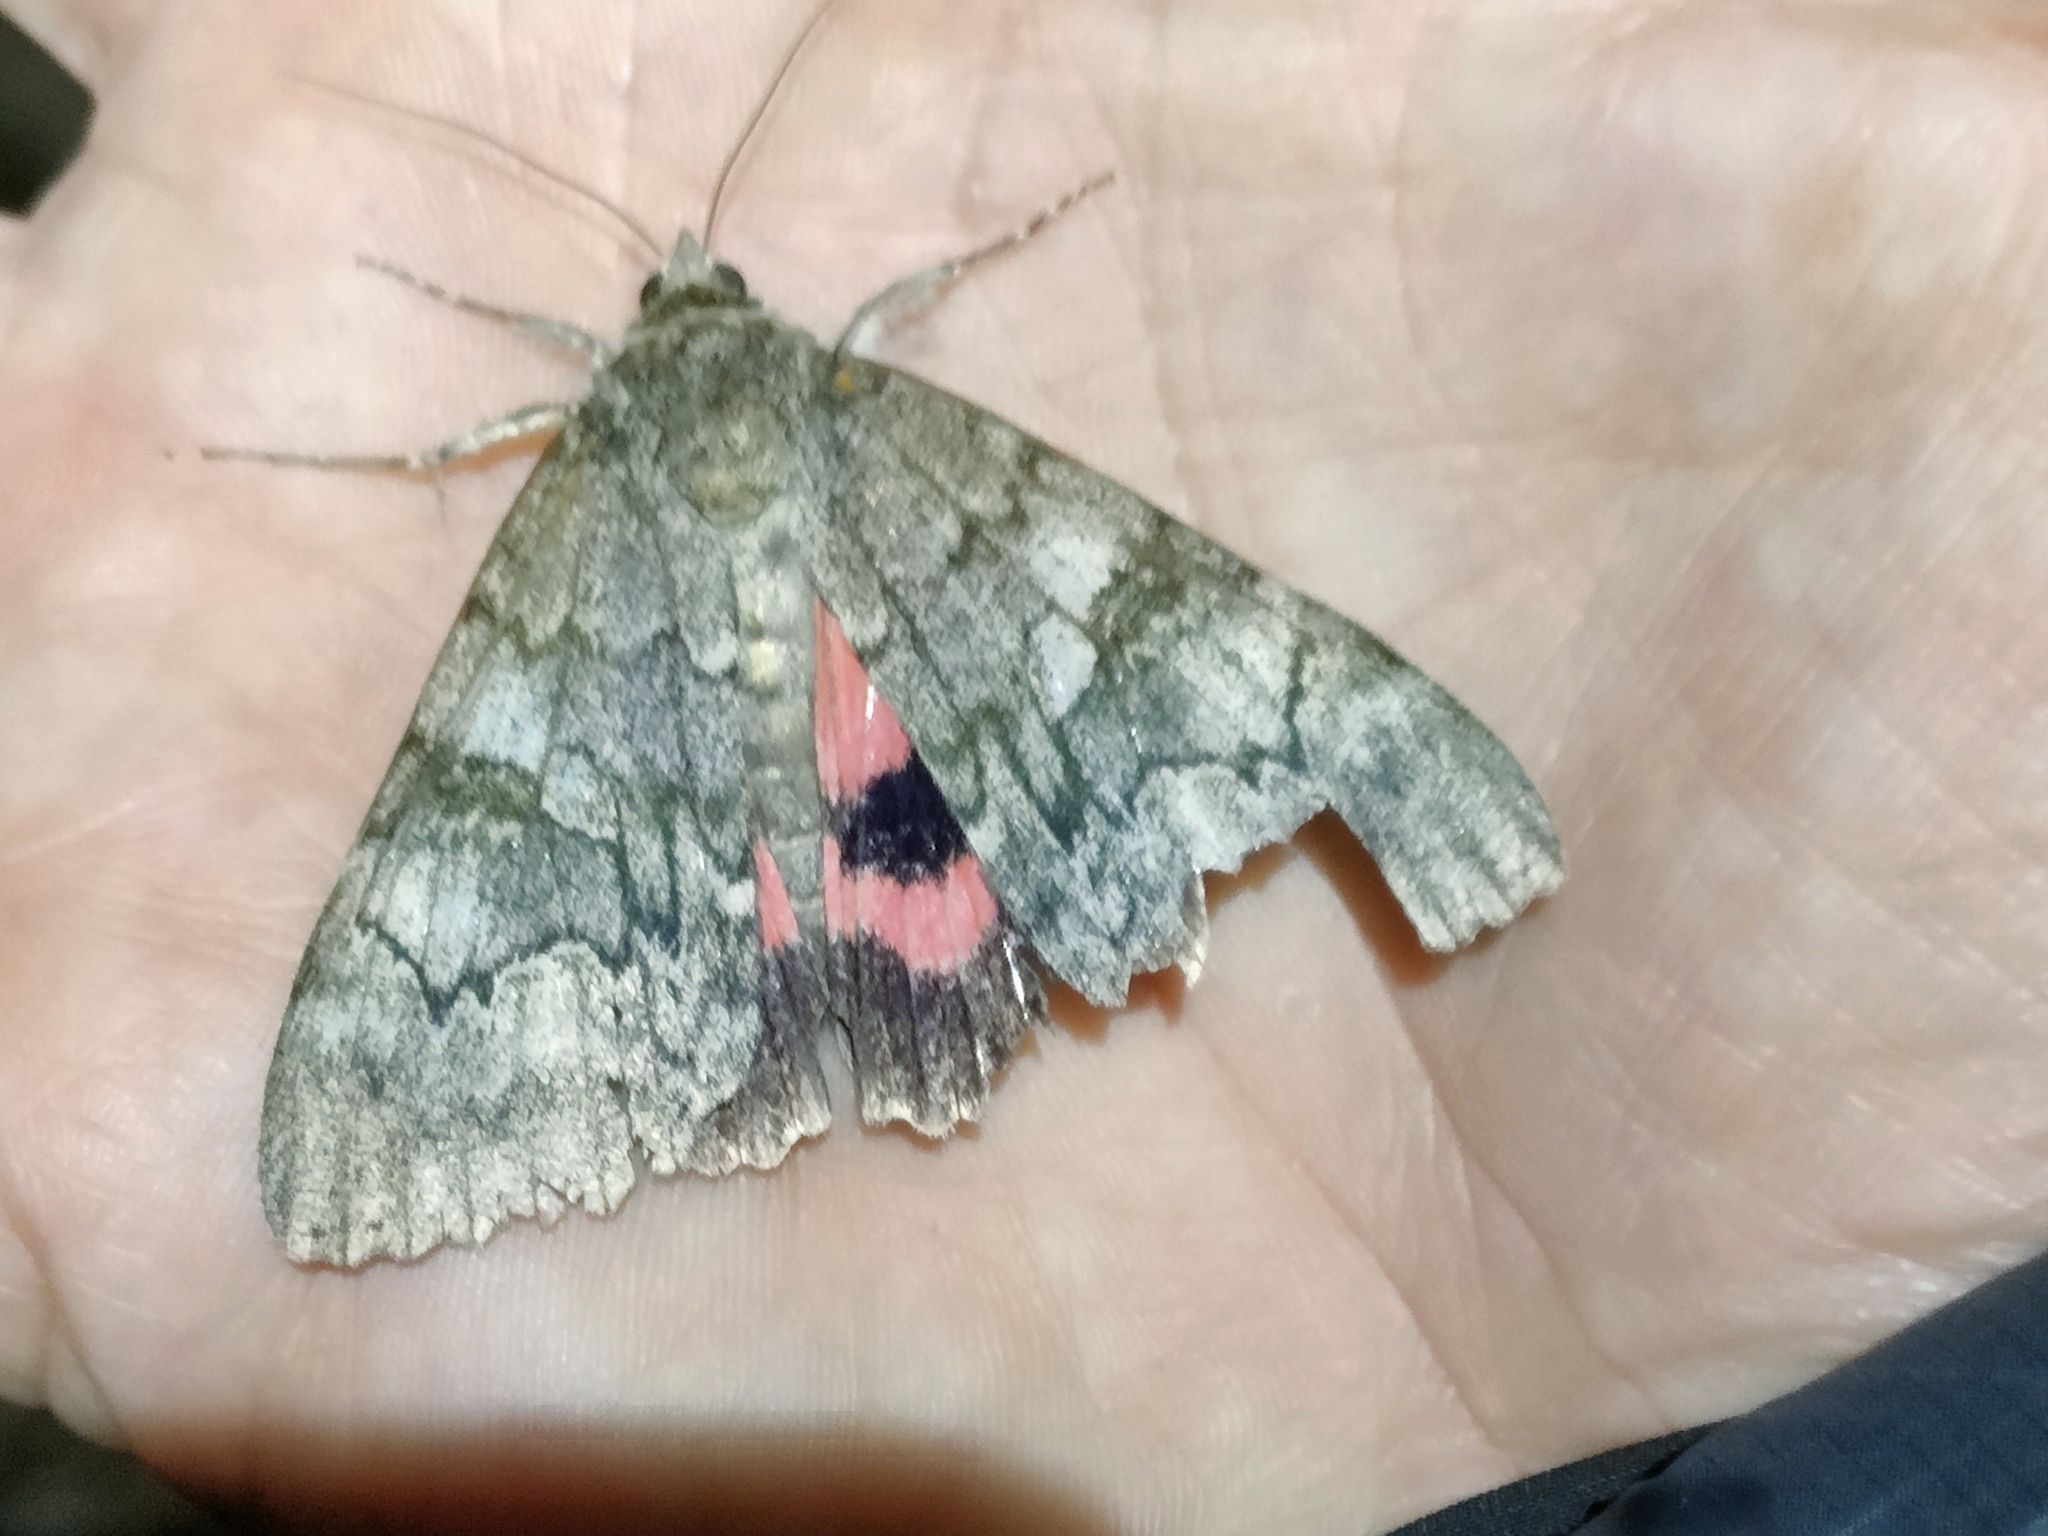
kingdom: Animalia
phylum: Arthropoda
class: Insecta
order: Lepidoptera
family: Erebidae
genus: Catocala
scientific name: Catocala nupta
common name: Red underwing
